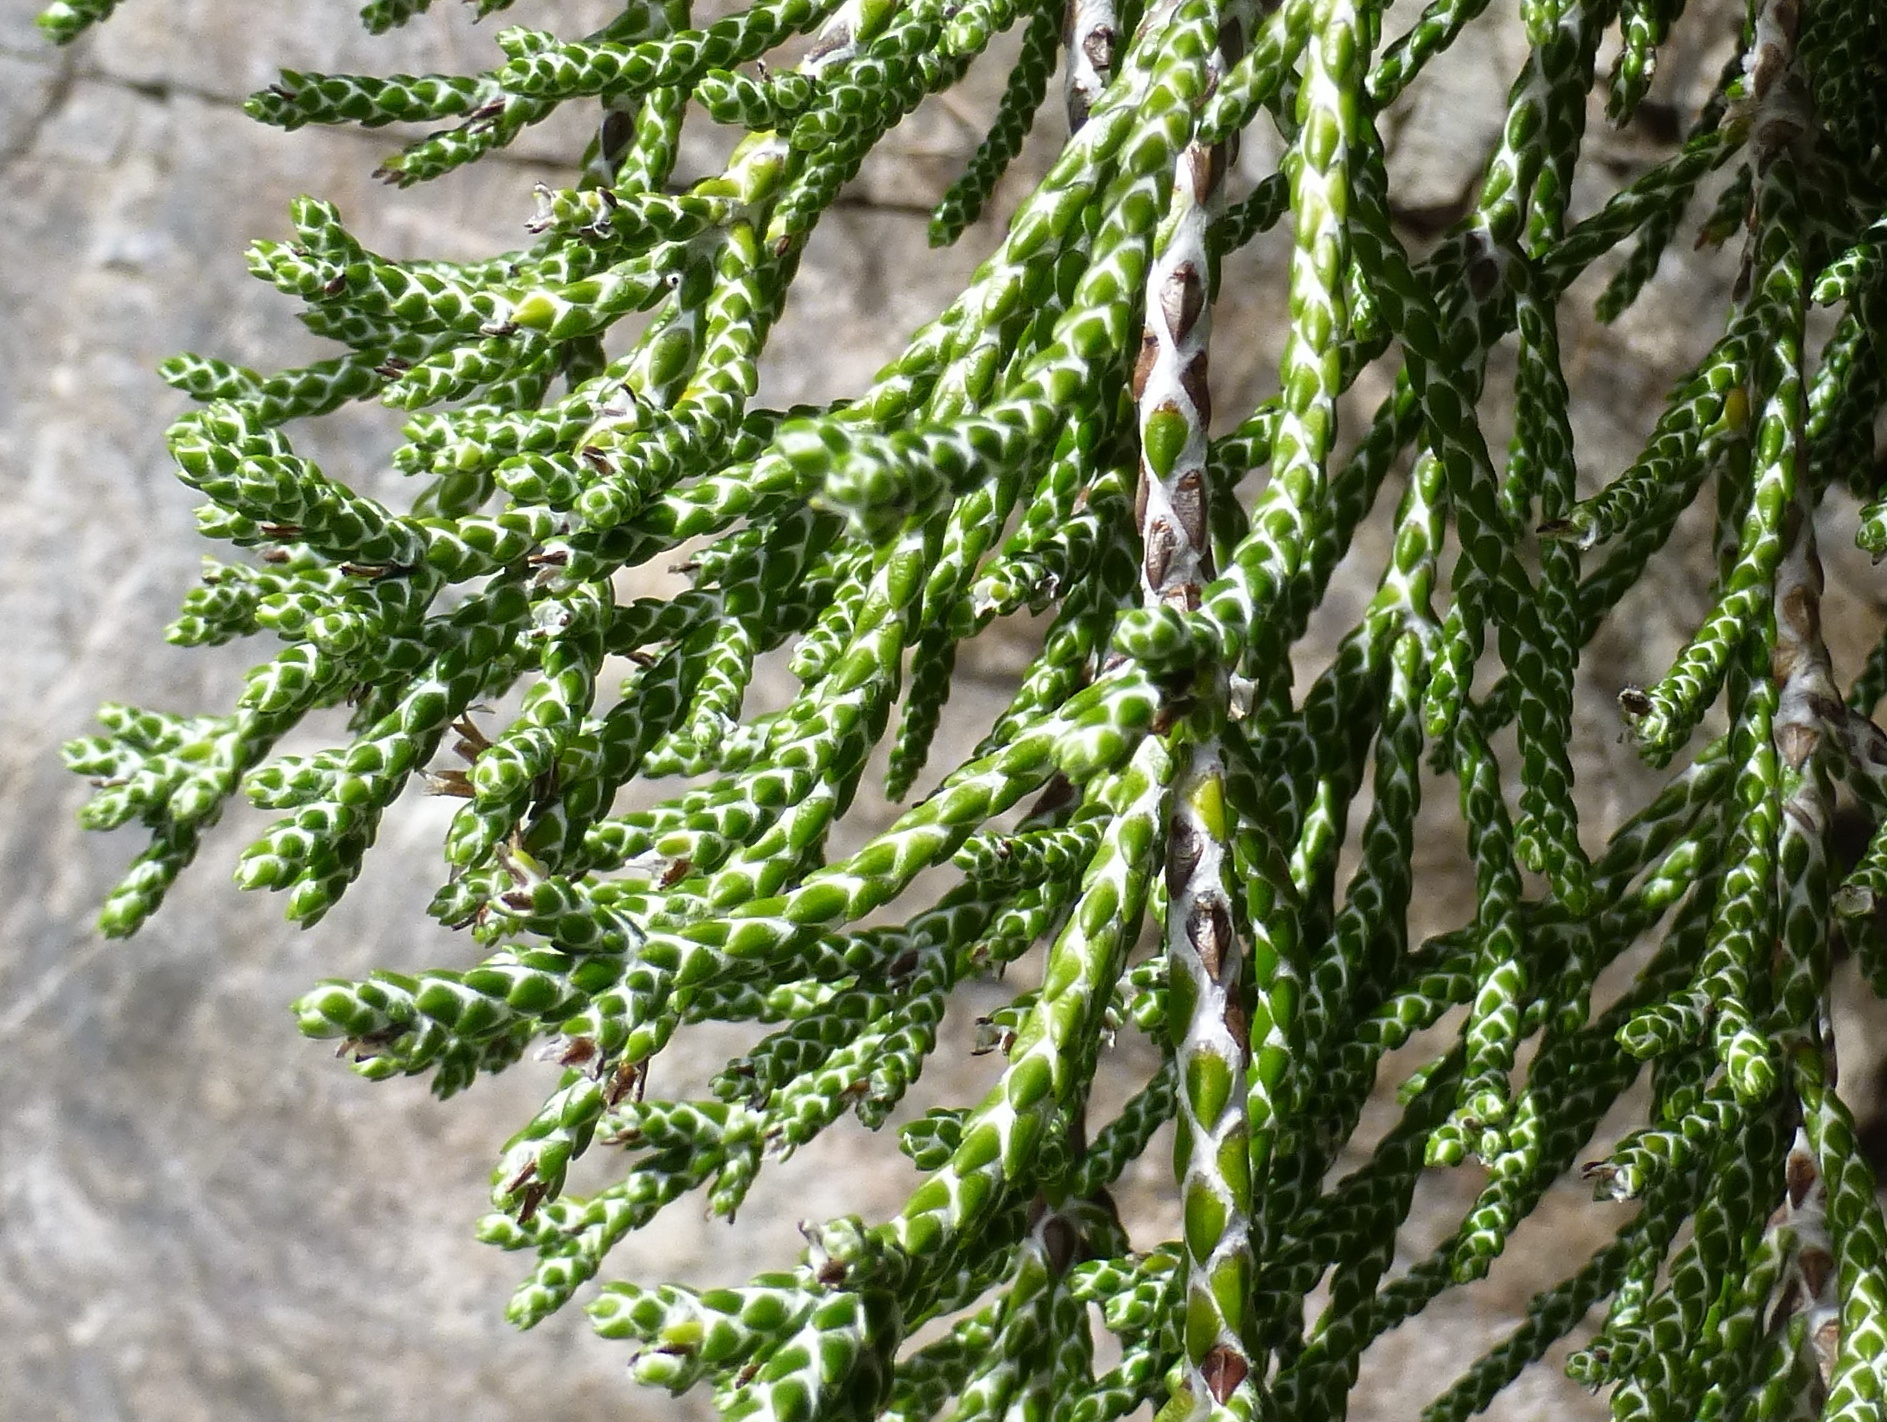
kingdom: Plantae
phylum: Tracheophyta
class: Magnoliopsida
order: Asterales
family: Asteraceae
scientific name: Asteraceae
